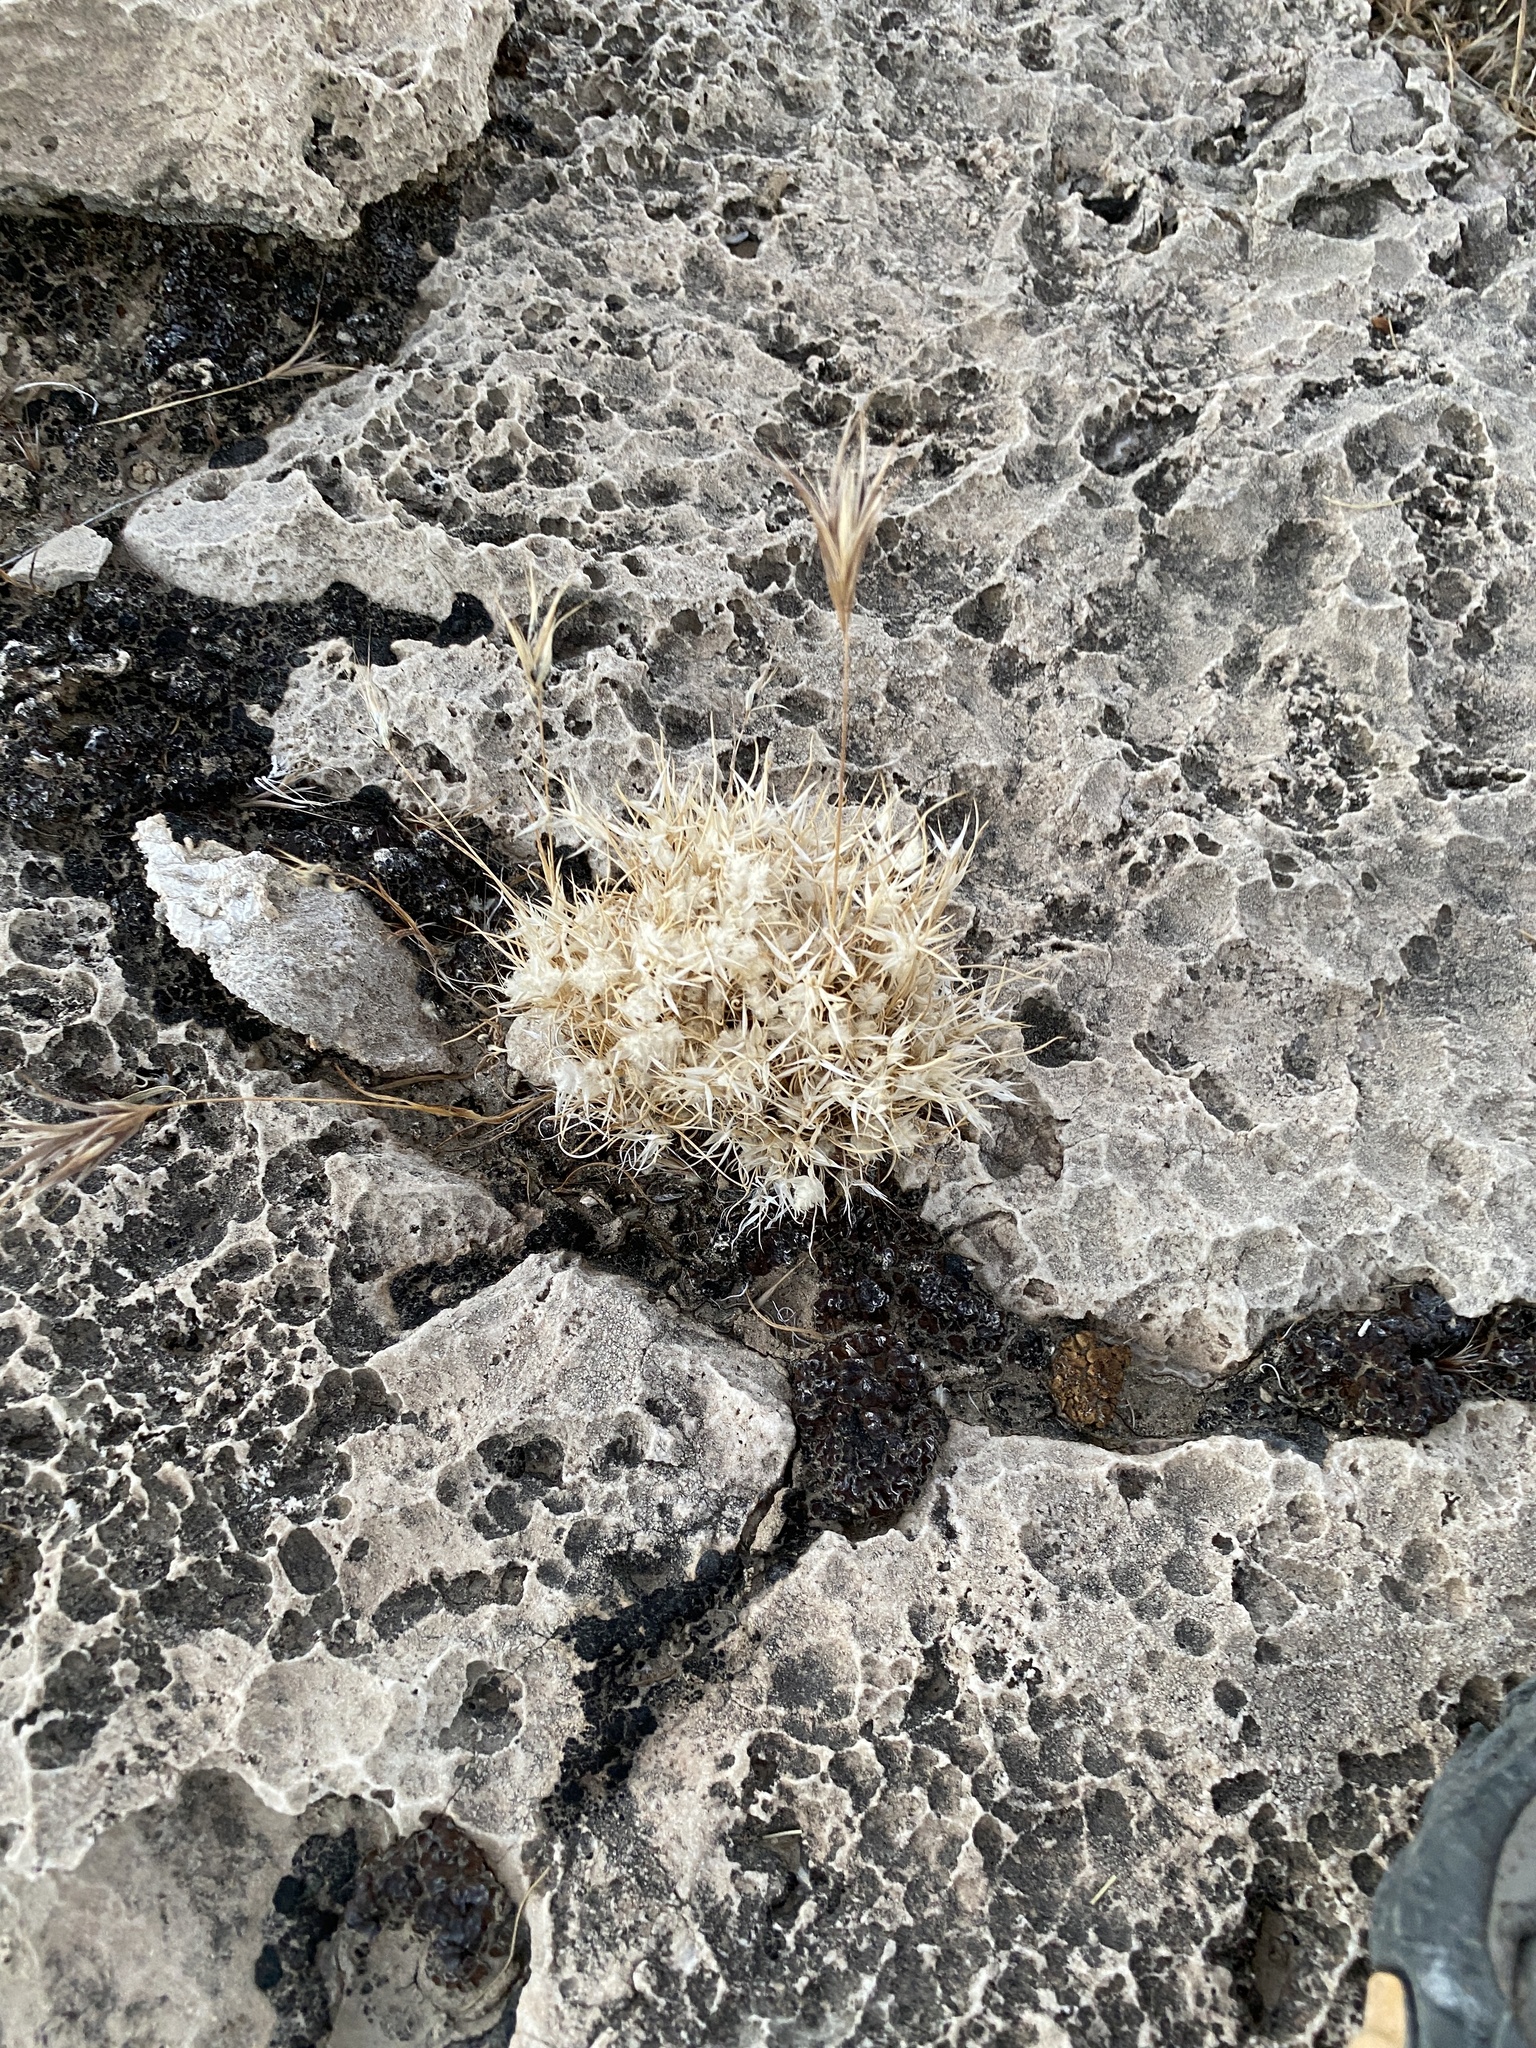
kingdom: Plantae
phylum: Tracheophyta
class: Liliopsida
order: Poales
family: Poaceae
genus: Dasyochloa
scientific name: Dasyochloa pulchella
